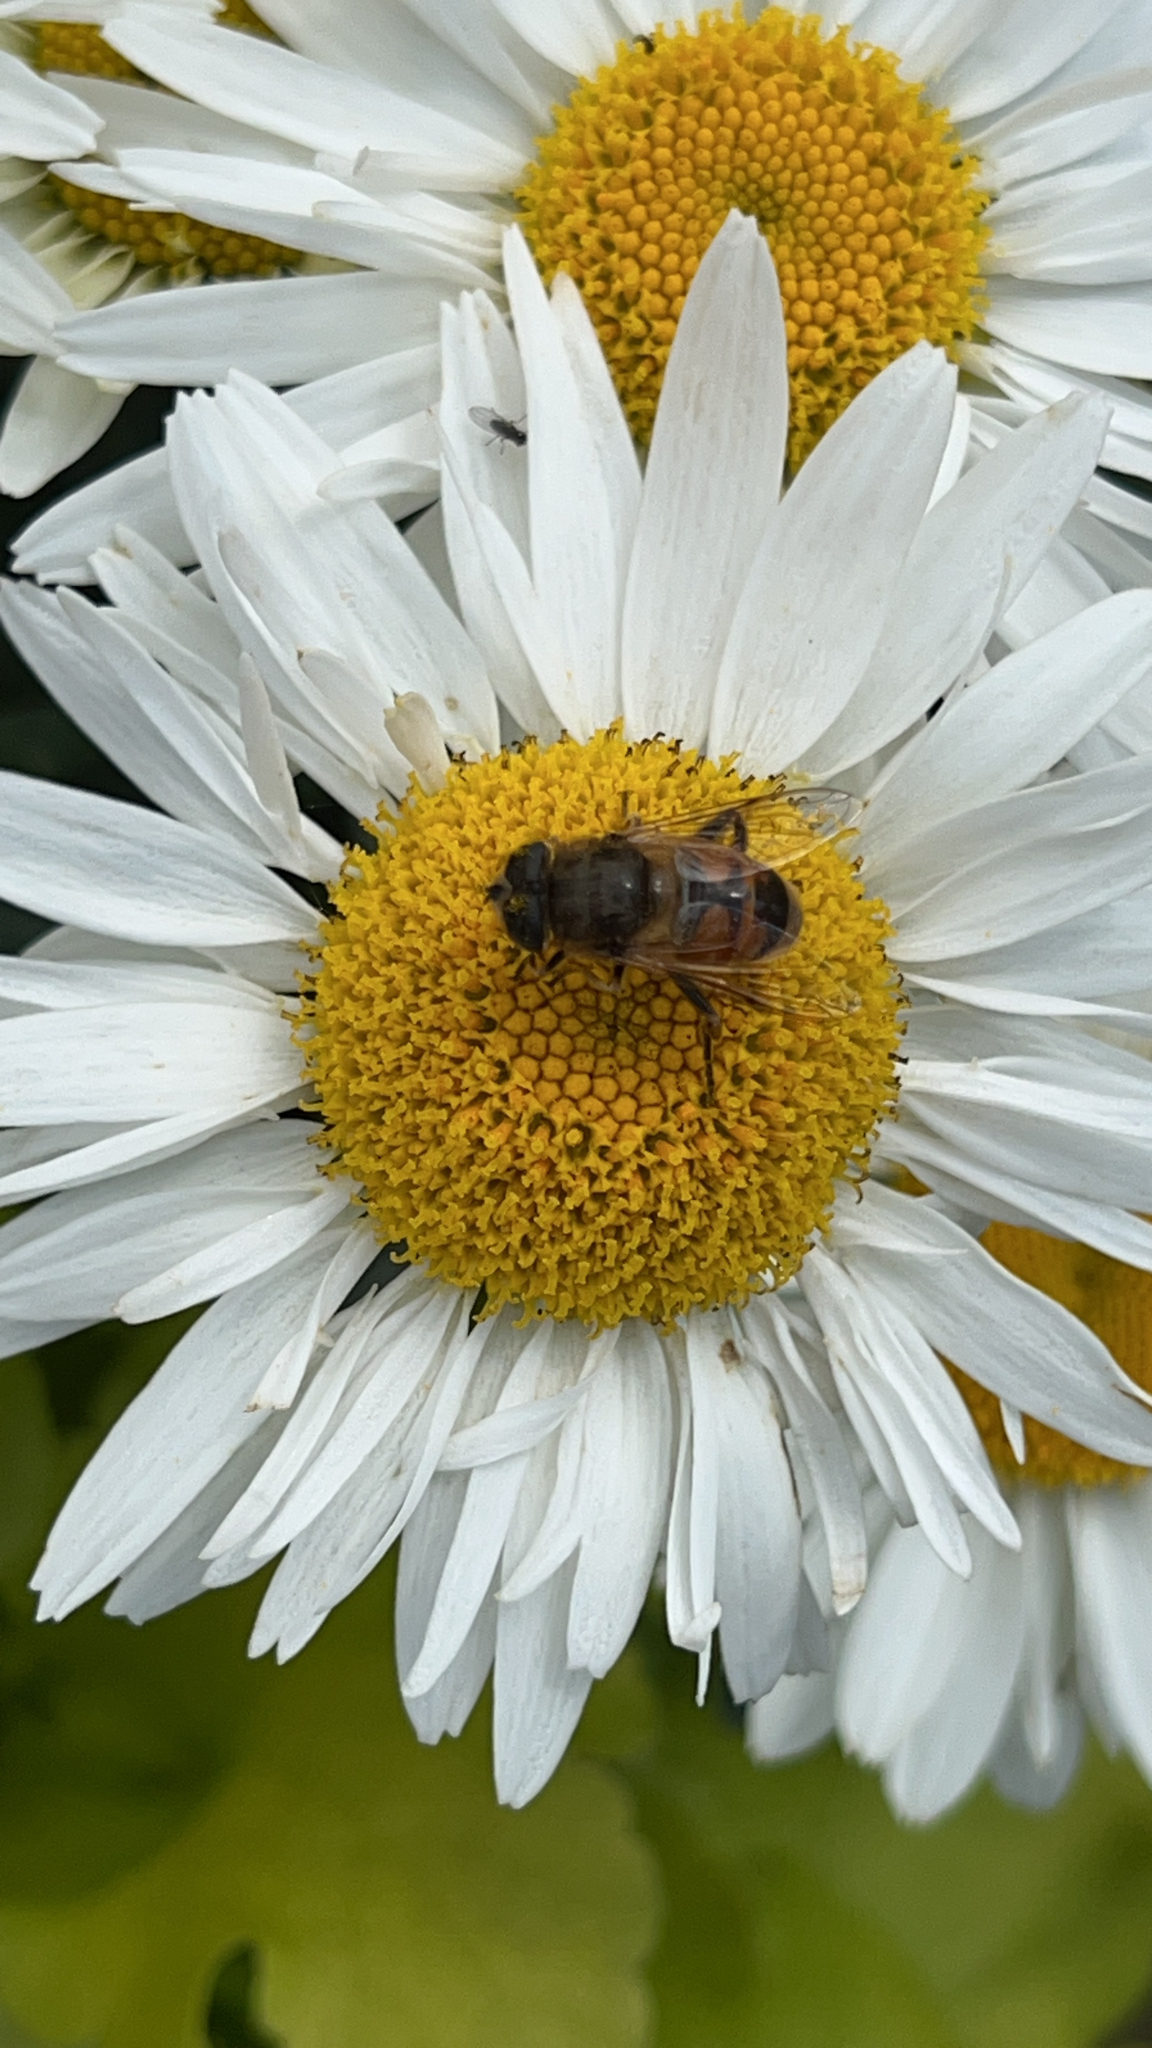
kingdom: Animalia
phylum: Arthropoda
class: Insecta
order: Diptera
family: Syrphidae
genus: Eristalis
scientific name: Eristalis tenax
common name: Drone fly
